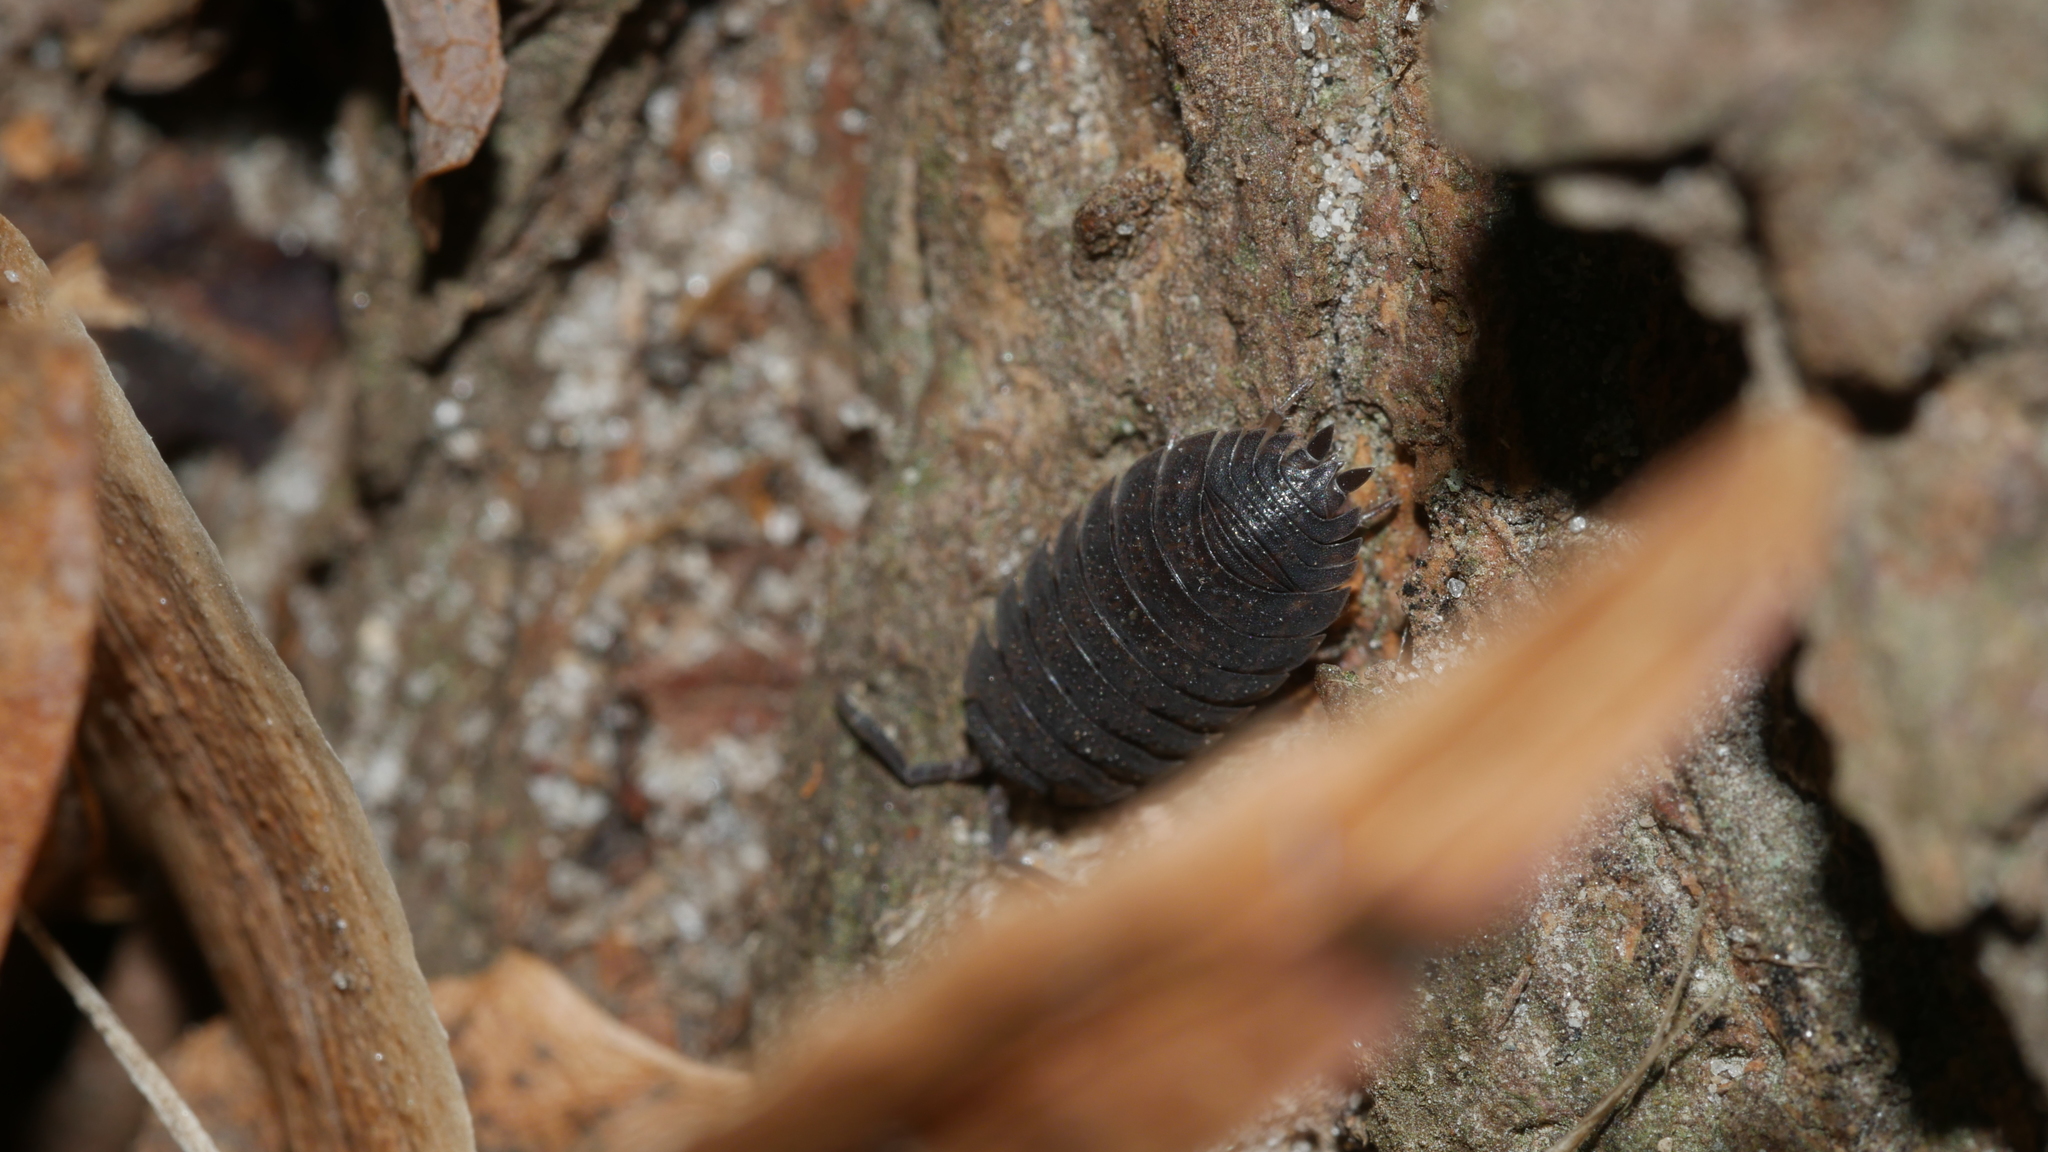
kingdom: Animalia
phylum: Arthropoda
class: Malacostraca
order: Isopoda
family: Porcellionidae
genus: Porcellio
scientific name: Porcellio scaber
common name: Common rough woodlouse
